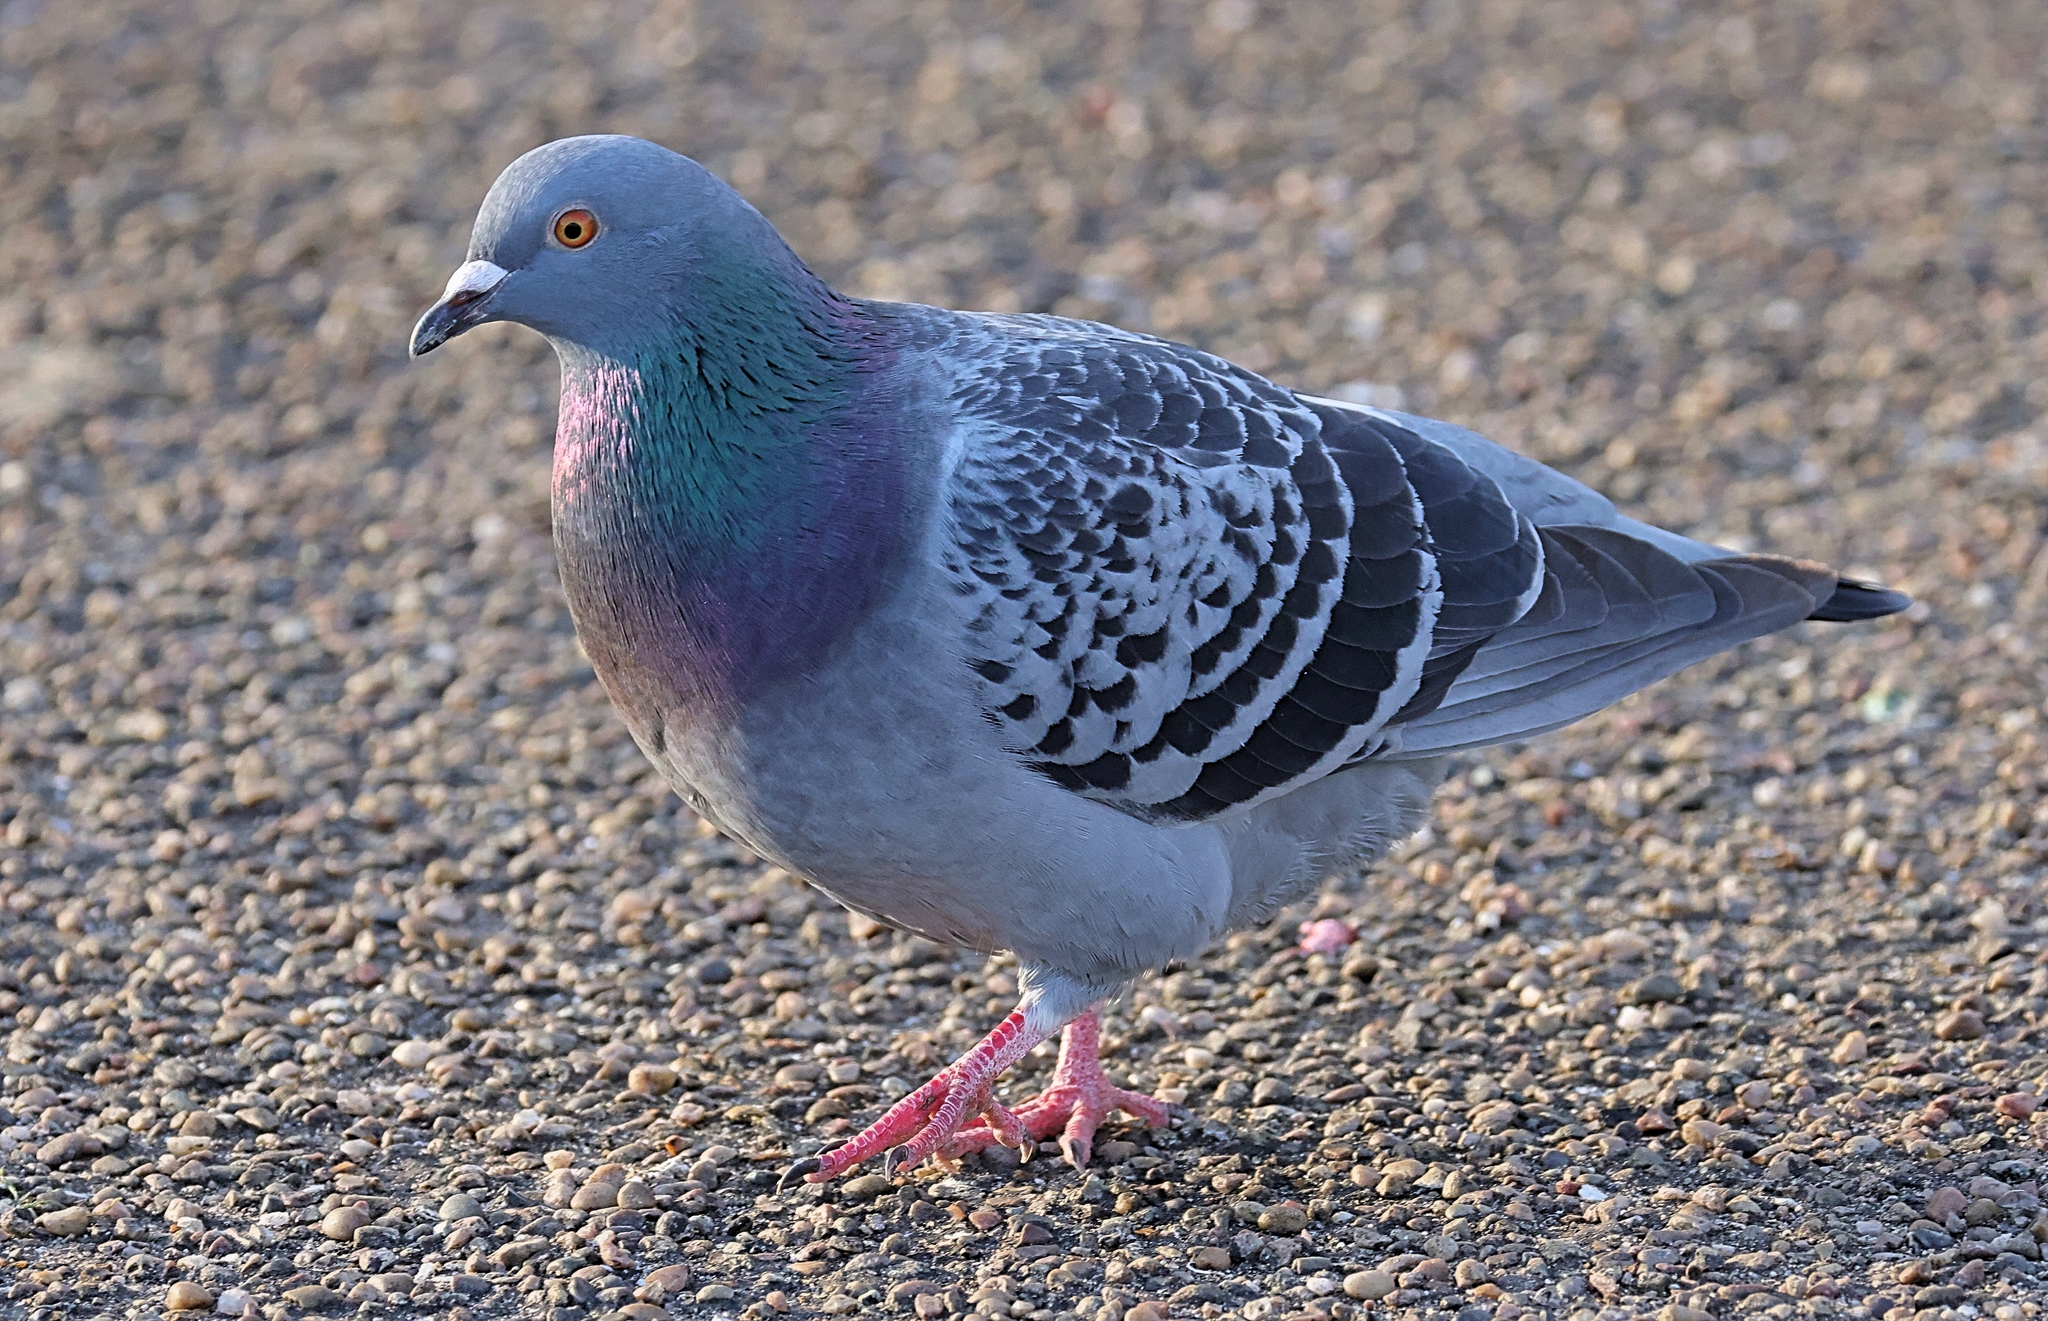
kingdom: Animalia
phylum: Chordata
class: Aves
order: Columbiformes
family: Columbidae
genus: Columba
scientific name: Columba livia
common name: Rock pigeon
